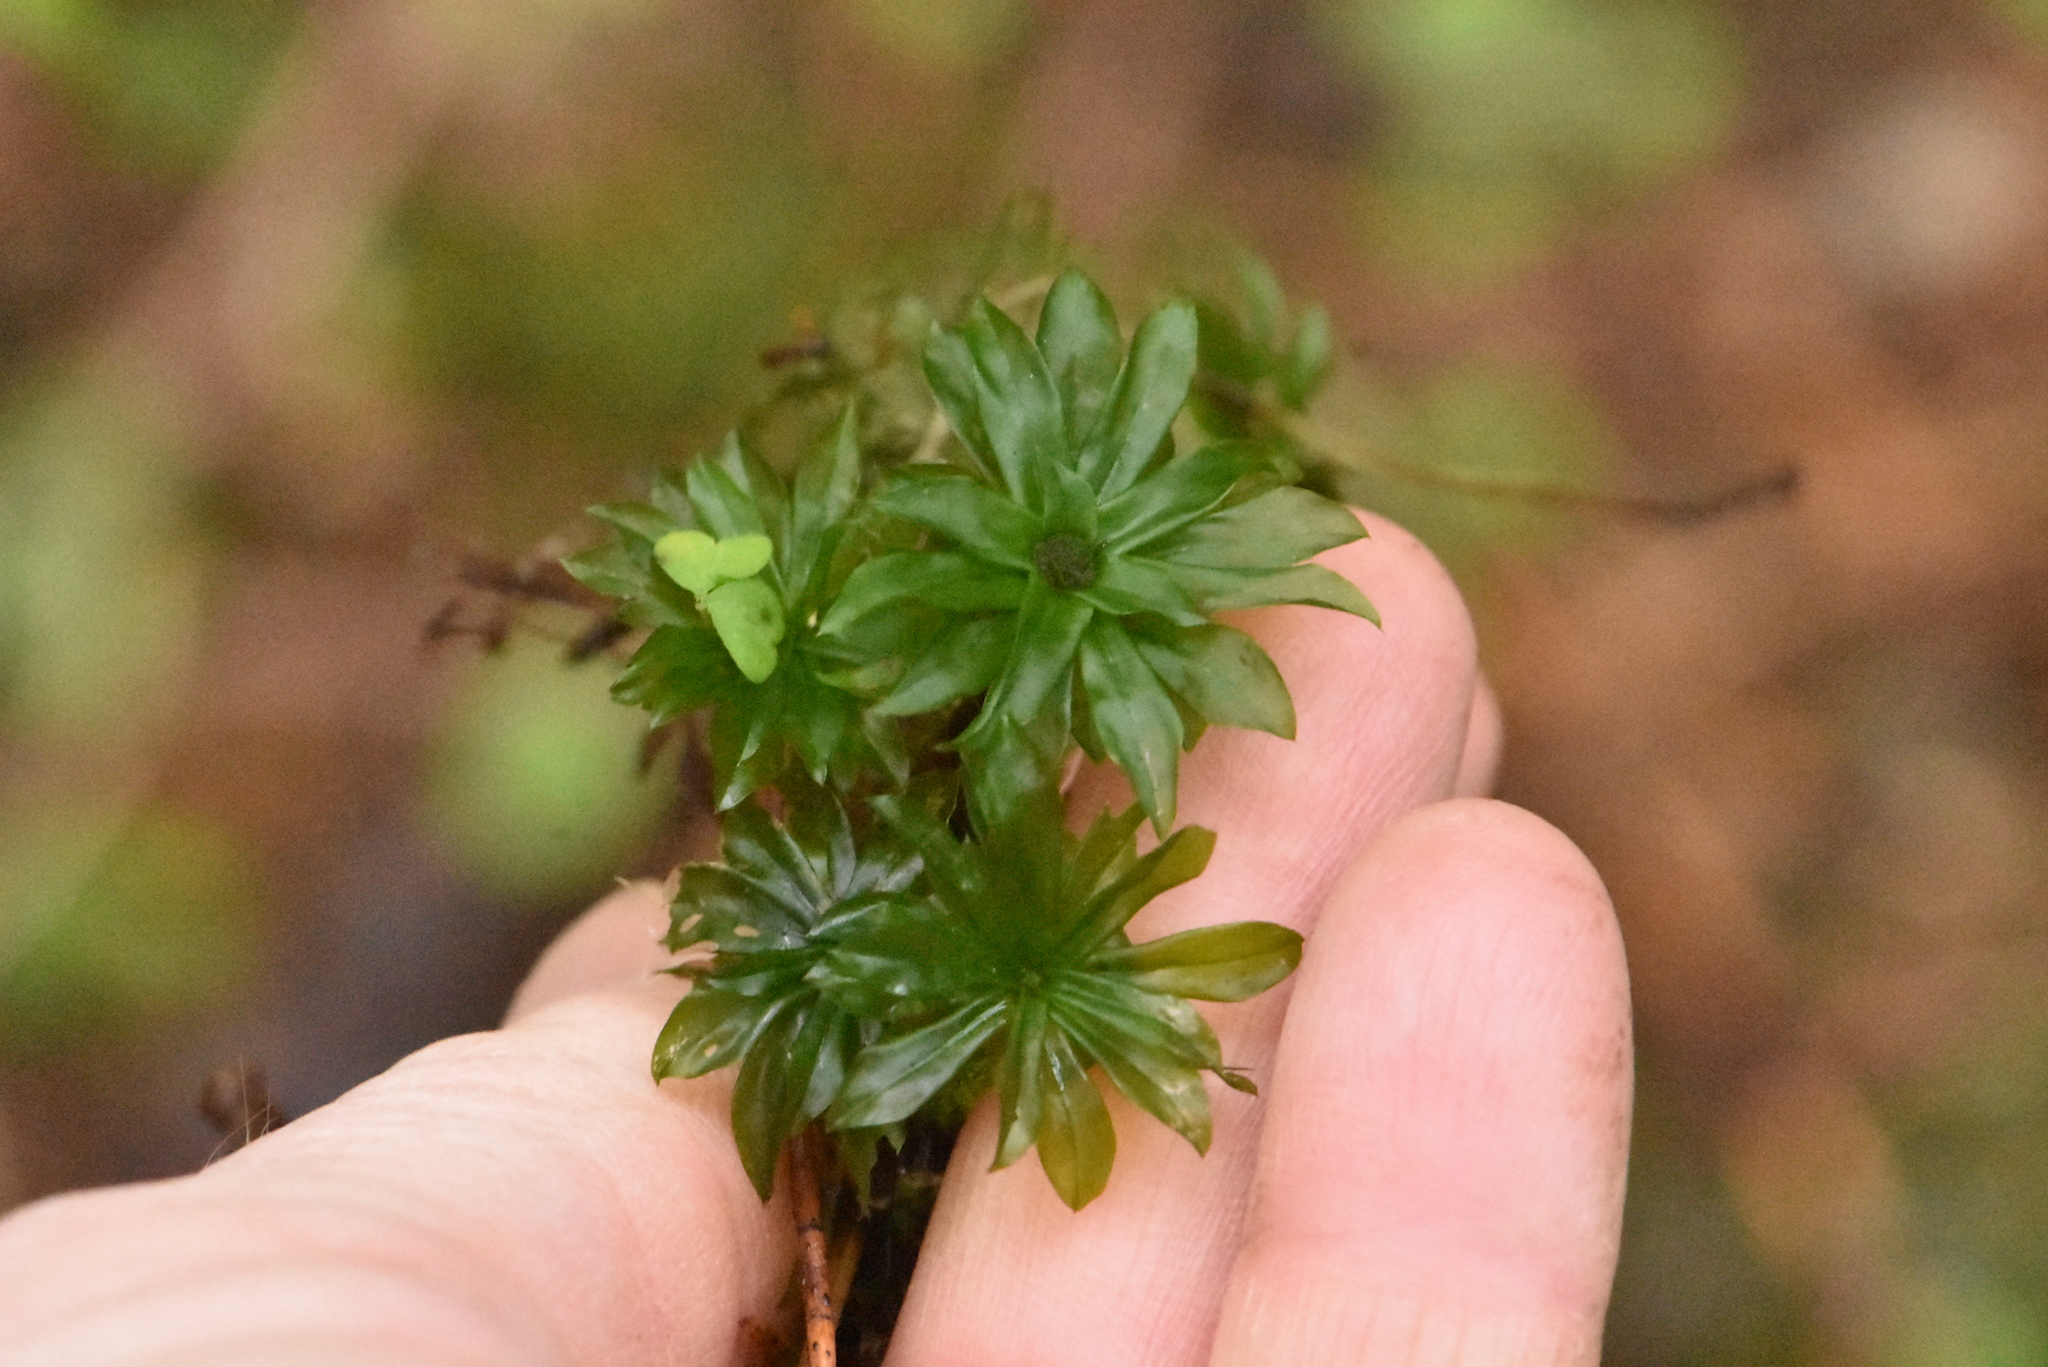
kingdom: Plantae
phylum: Bryophyta
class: Bryopsida
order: Bryales
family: Bryaceae
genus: Rhodobryum
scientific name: Rhodobryum roseum
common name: Rose-moss
